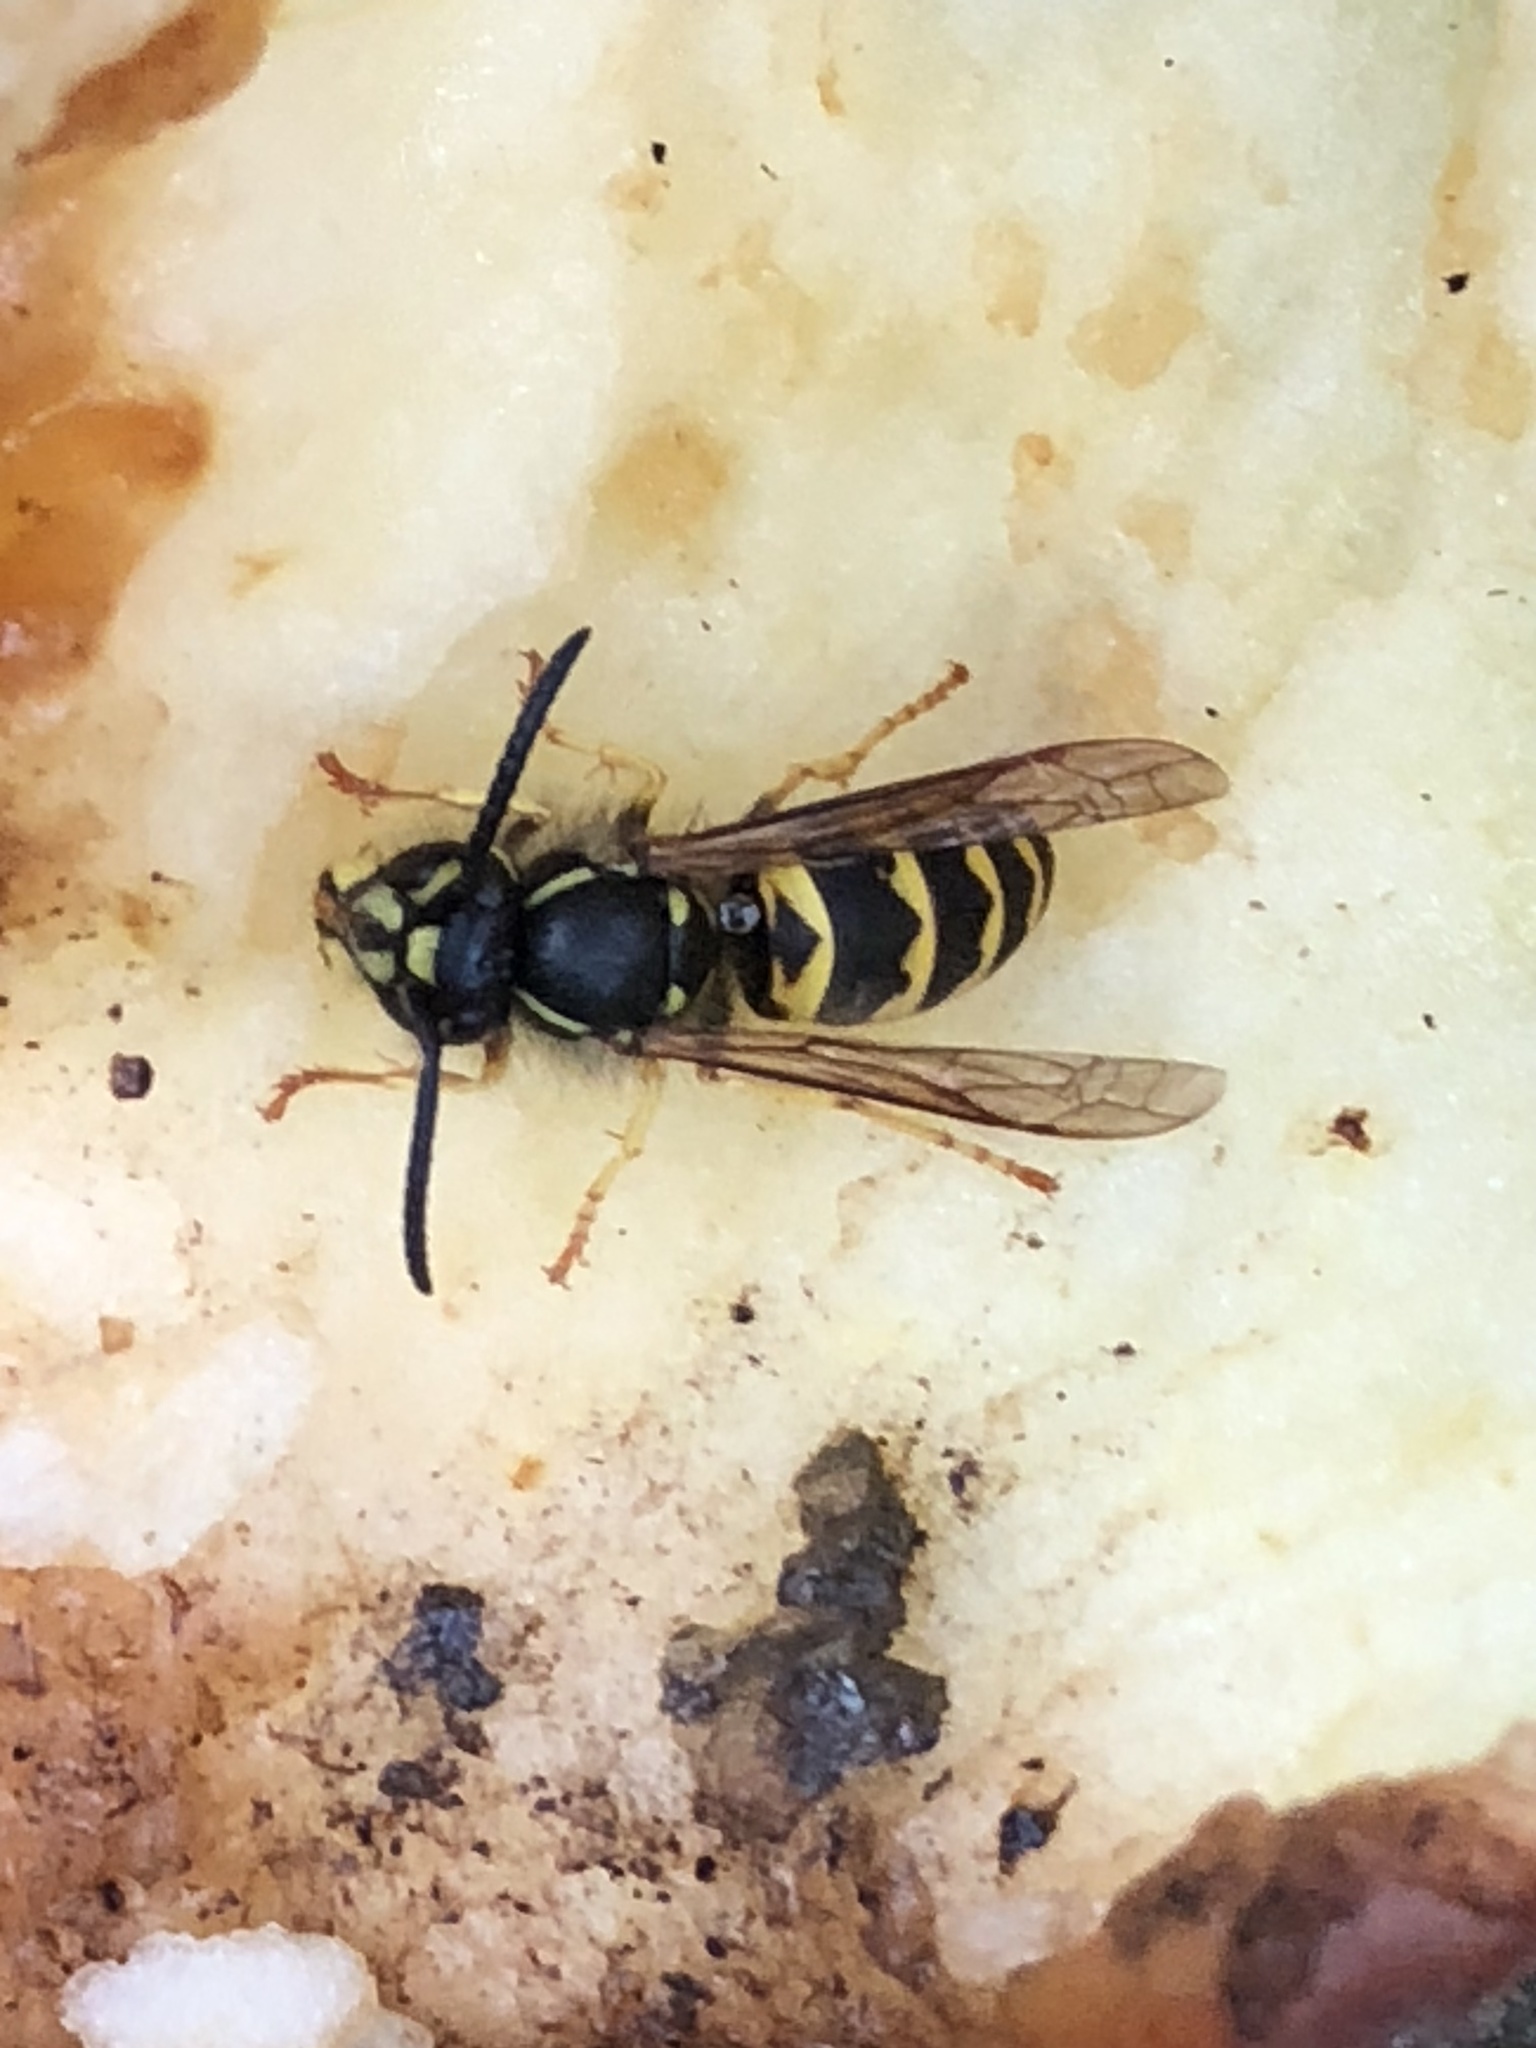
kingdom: Animalia
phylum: Arthropoda
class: Insecta
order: Hymenoptera
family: Vespidae
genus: Vespula
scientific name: Vespula alascensis
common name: Alaska yellowjacket
